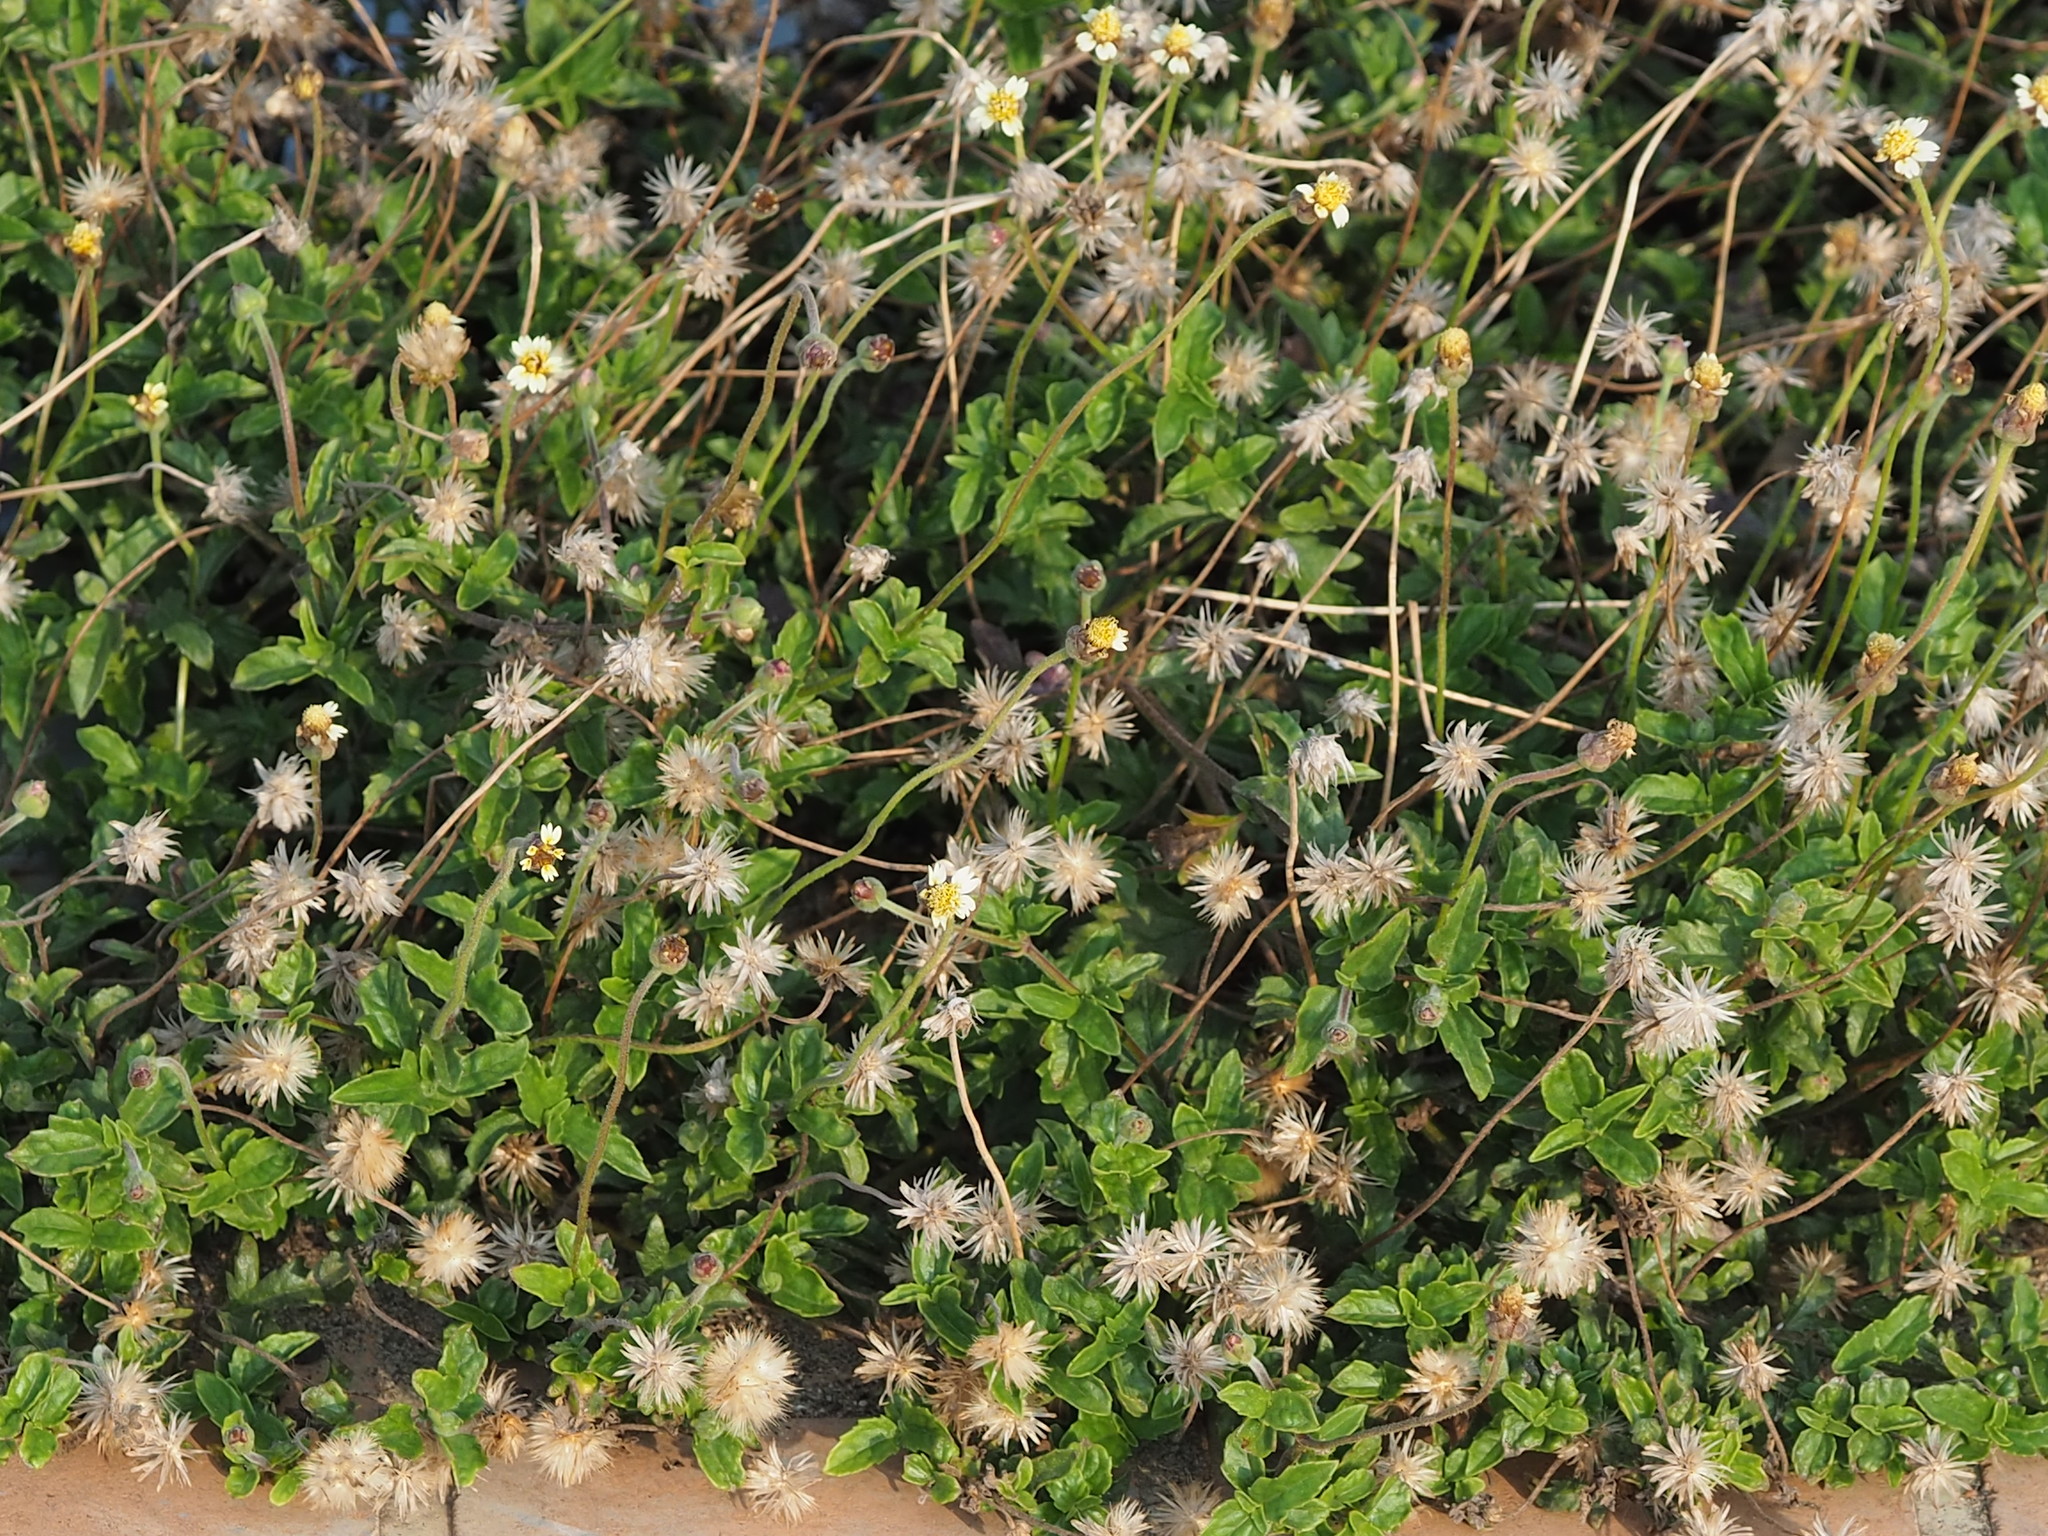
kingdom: Plantae
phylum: Tracheophyta
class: Magnoliopsida
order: Asterales
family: Asteraceae
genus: Tridax
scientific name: Tridax procumbens
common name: Coatbuttons
